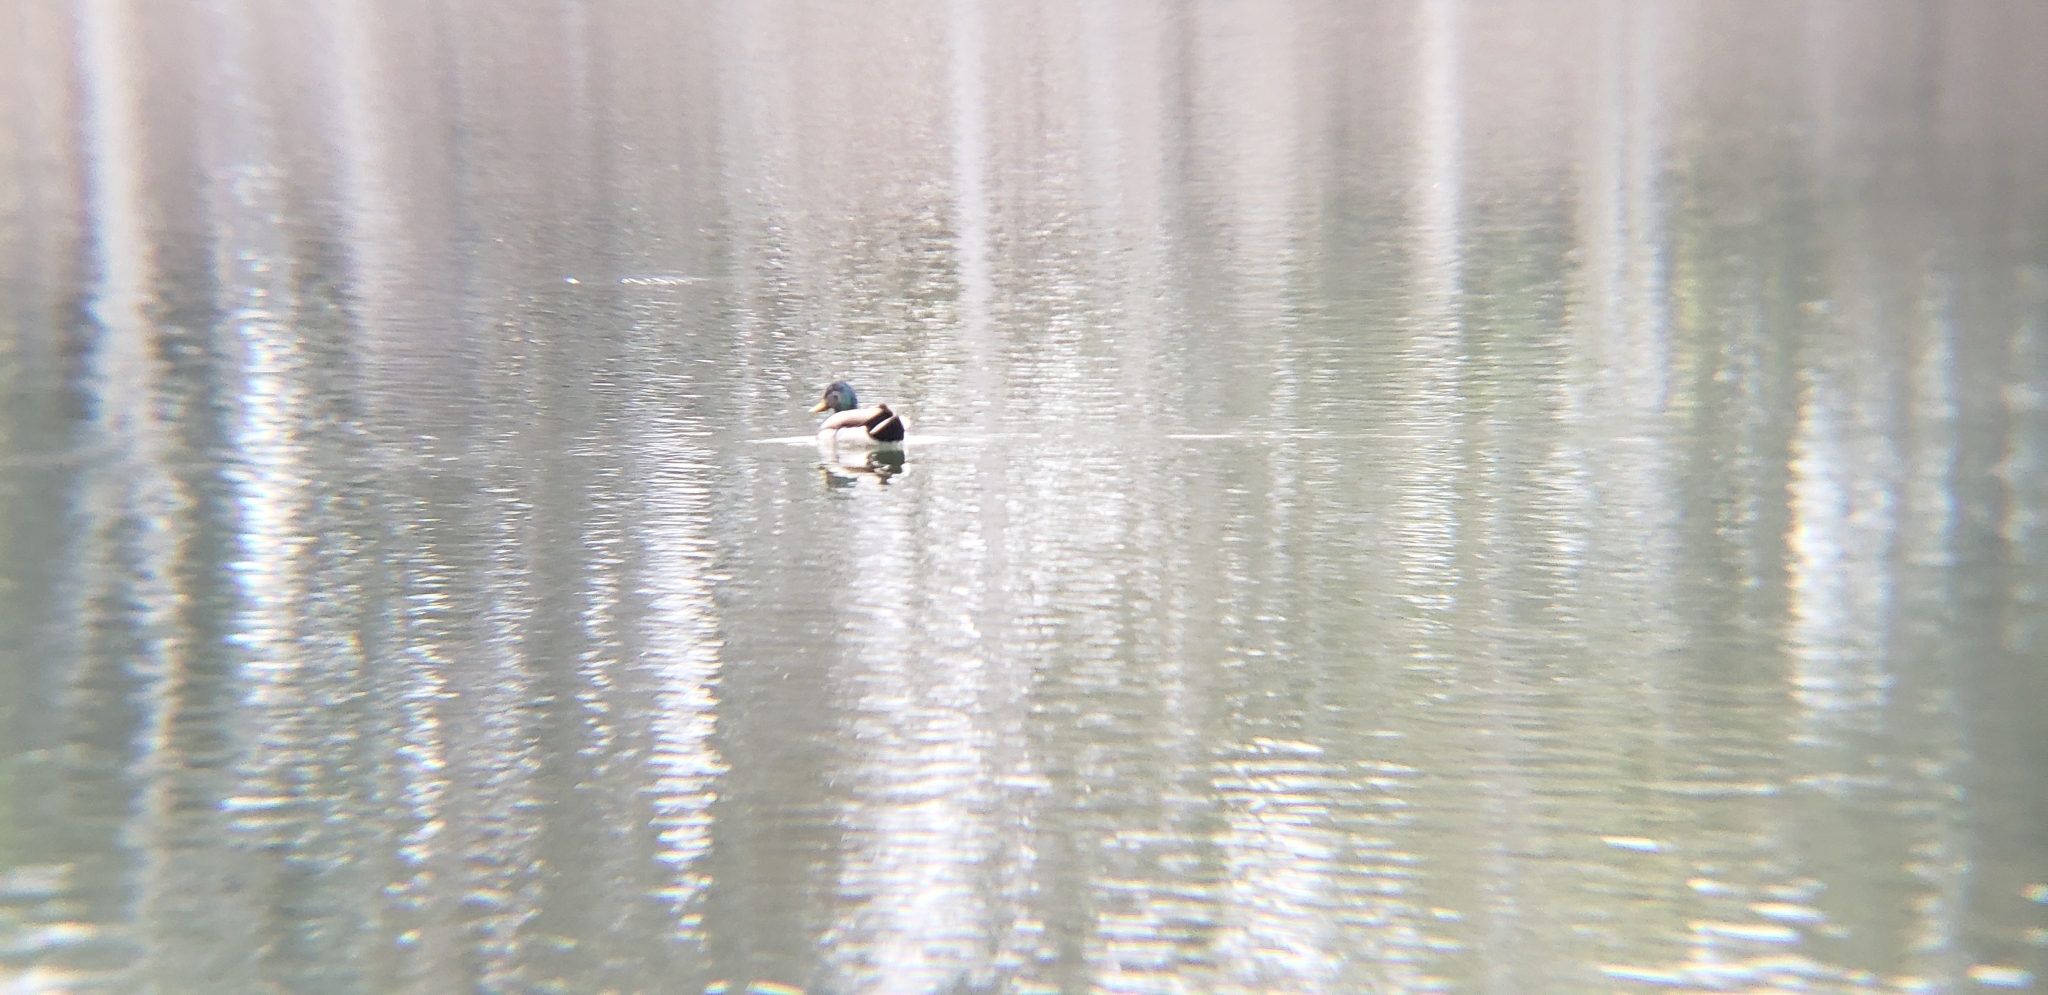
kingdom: Animalia
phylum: Chordata
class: Aves
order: Anseriformes
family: Anatidae
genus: Anas
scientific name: Anas platyrhynchos
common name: Mallard
